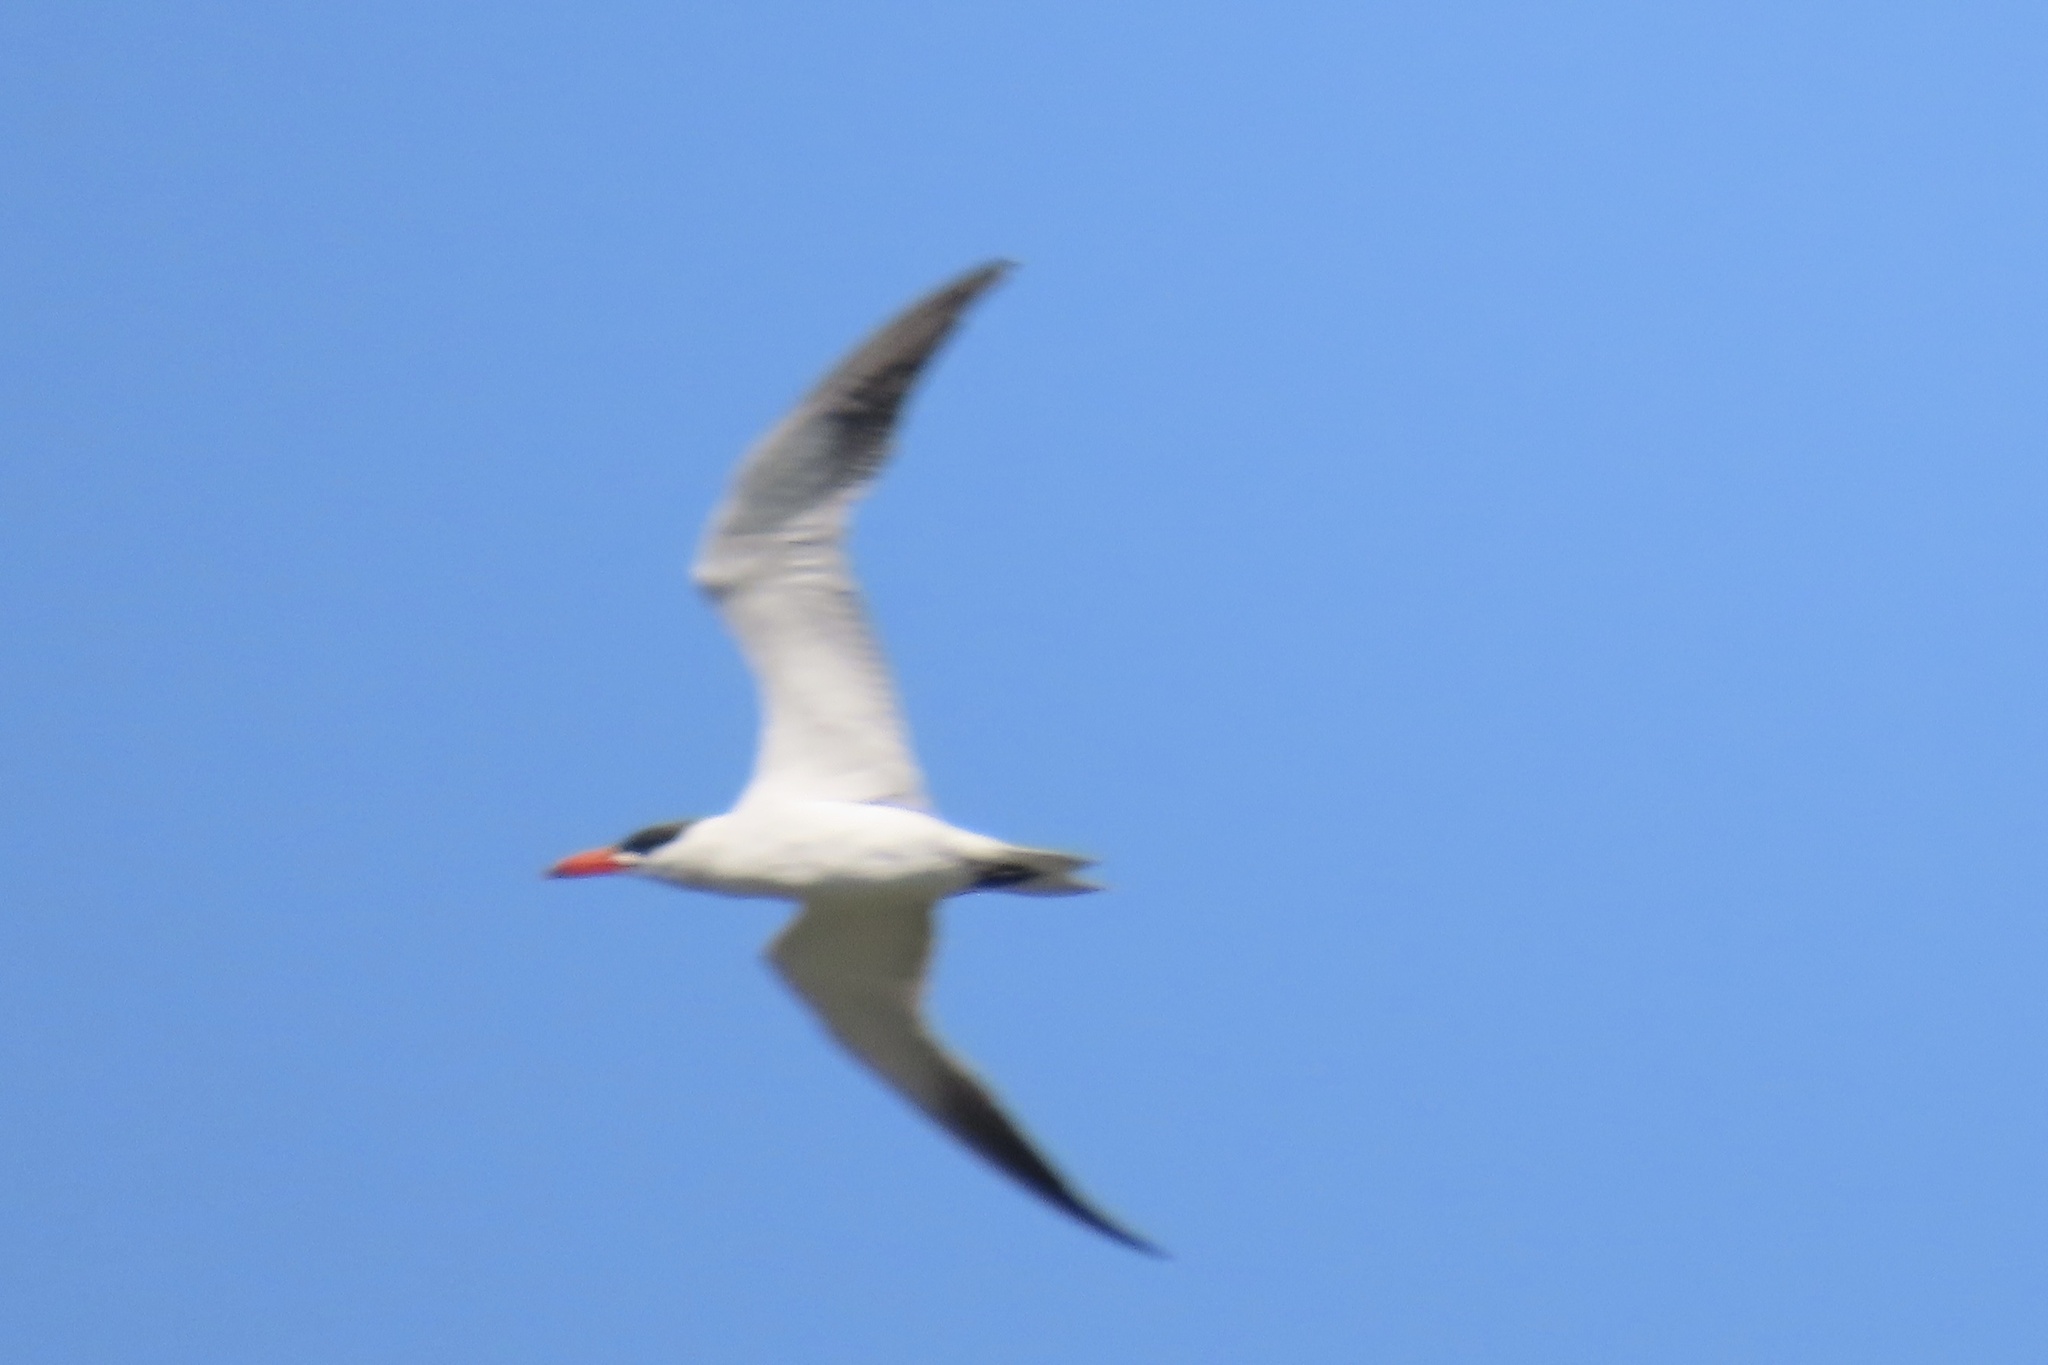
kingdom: Animalia
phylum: Chordata
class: Aves
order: Charadriiformes
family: Laridae
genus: Hydroprogne
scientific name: Hydroprogne caspia
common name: Caspian tern
